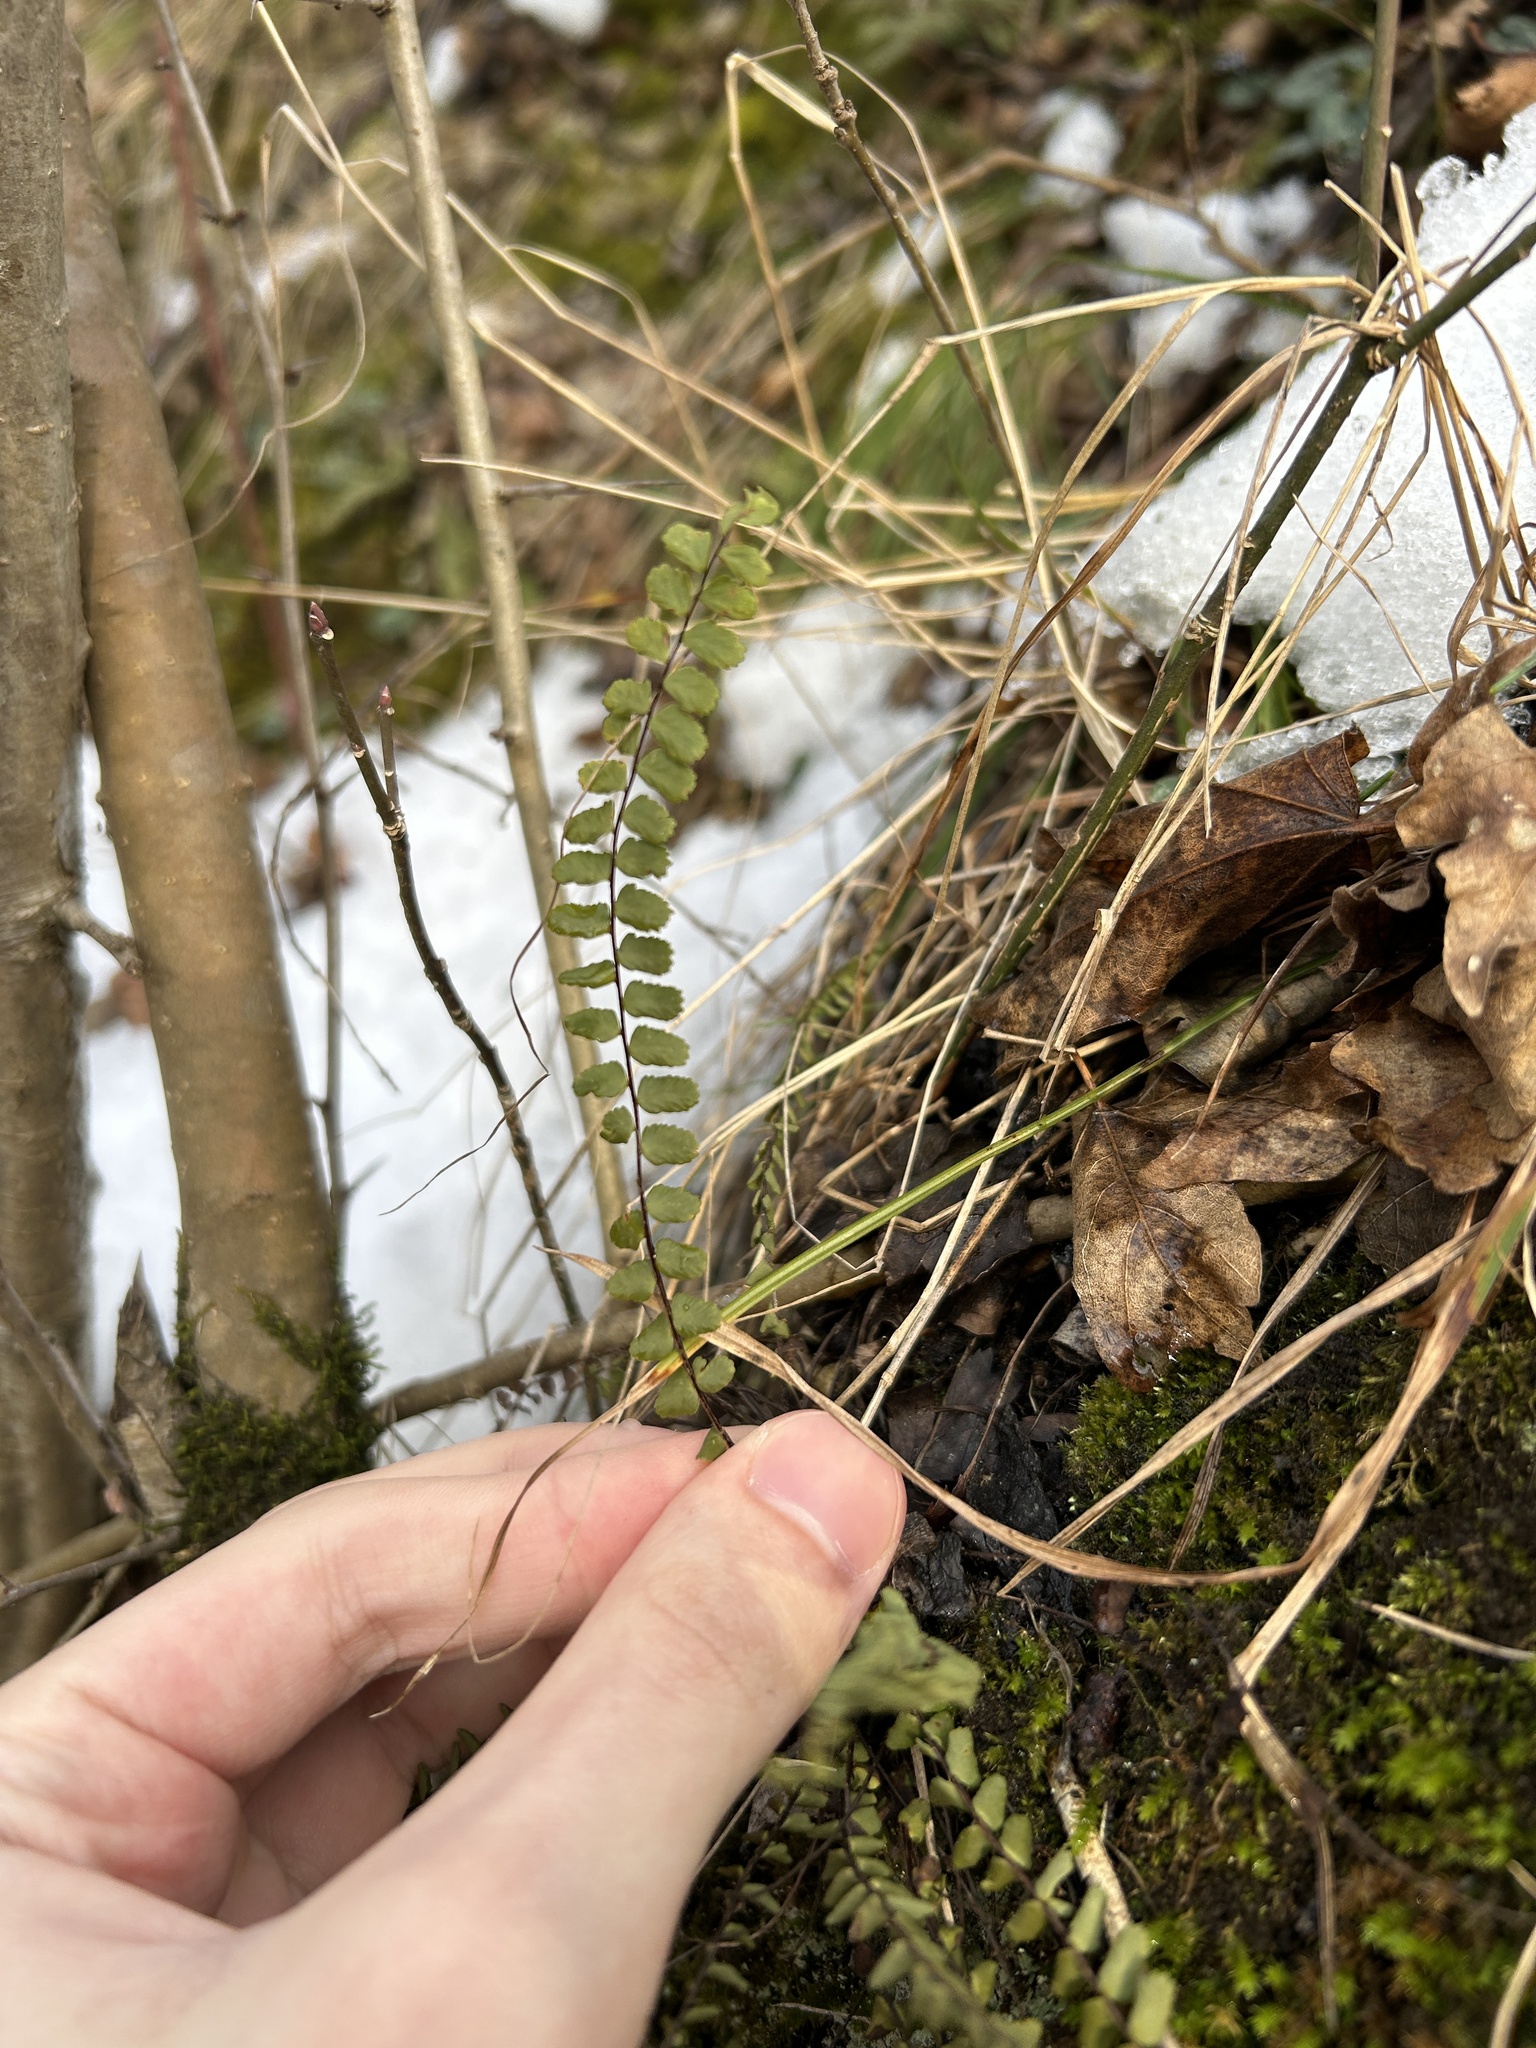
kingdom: Plantae
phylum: Tracheophyta
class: Polypodiopsida
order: Polypodiales
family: Aspleniaceae
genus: Asplenium
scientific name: Asplenium trichomanes
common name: Maidenhair spleenwort
